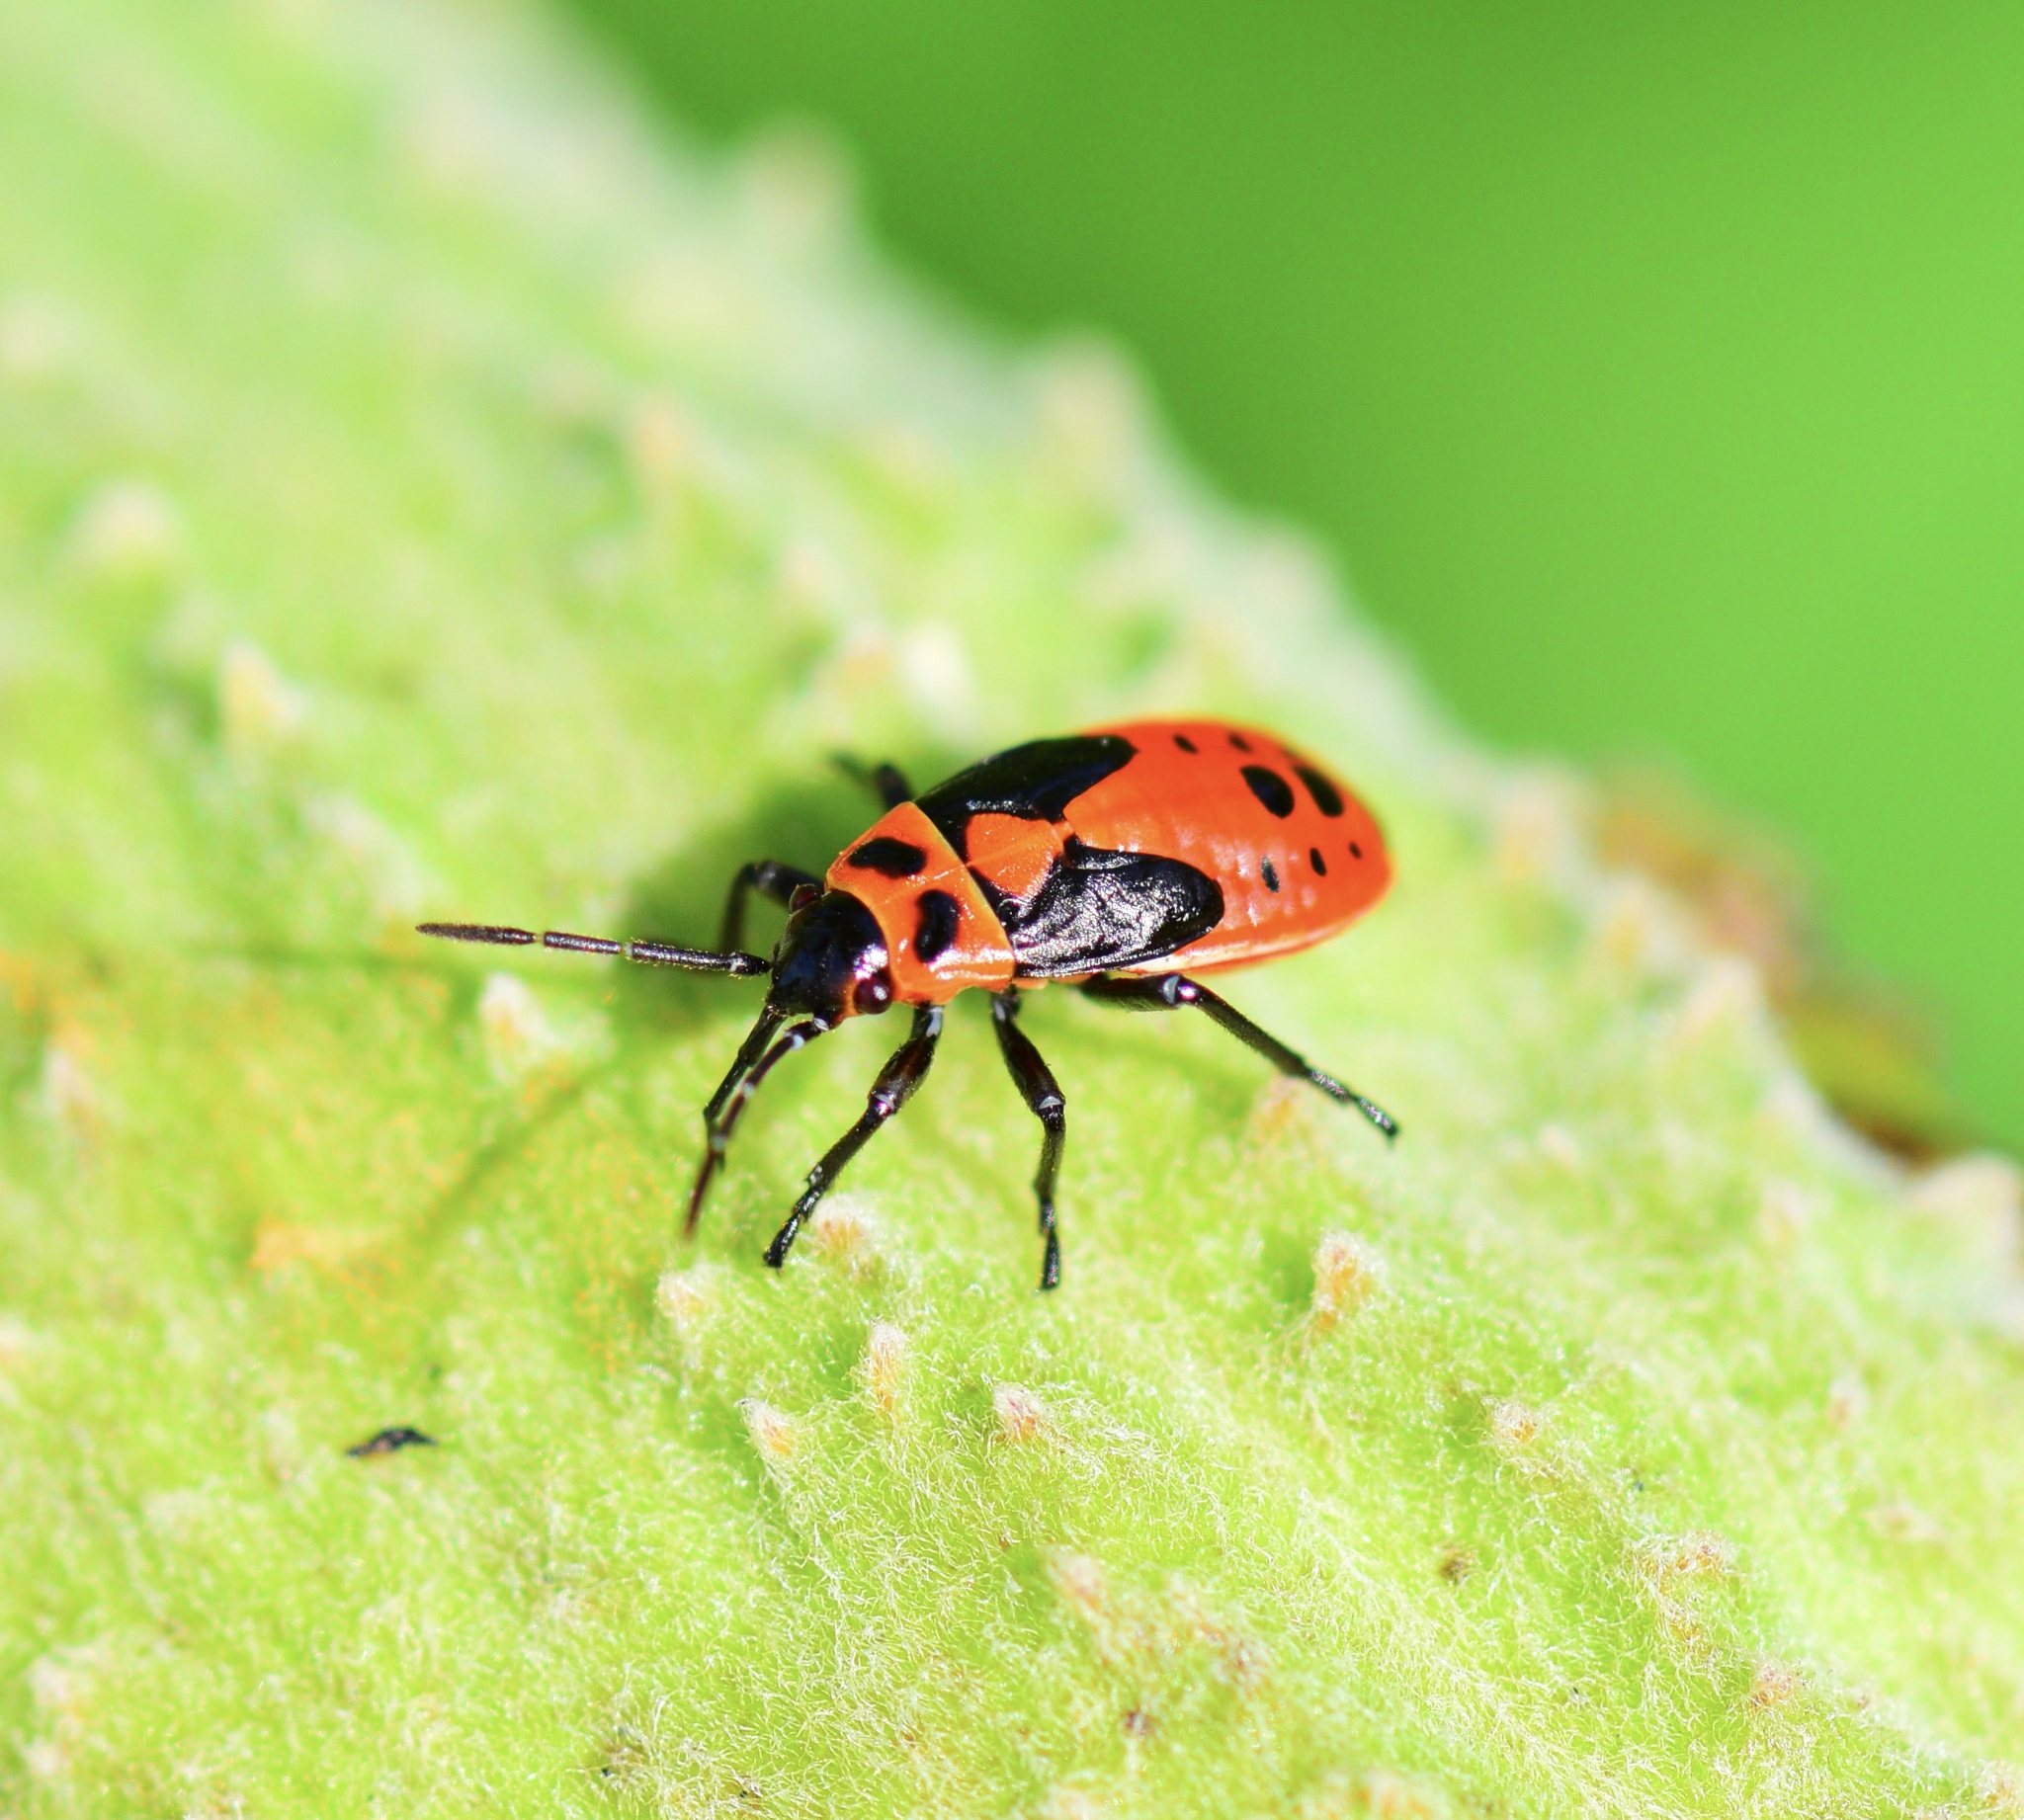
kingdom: Animalia
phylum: Arthropoda
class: Insecta
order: Hemiptera
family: Lygaeidae
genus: Lygaeus
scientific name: Lygaeus kalmii
